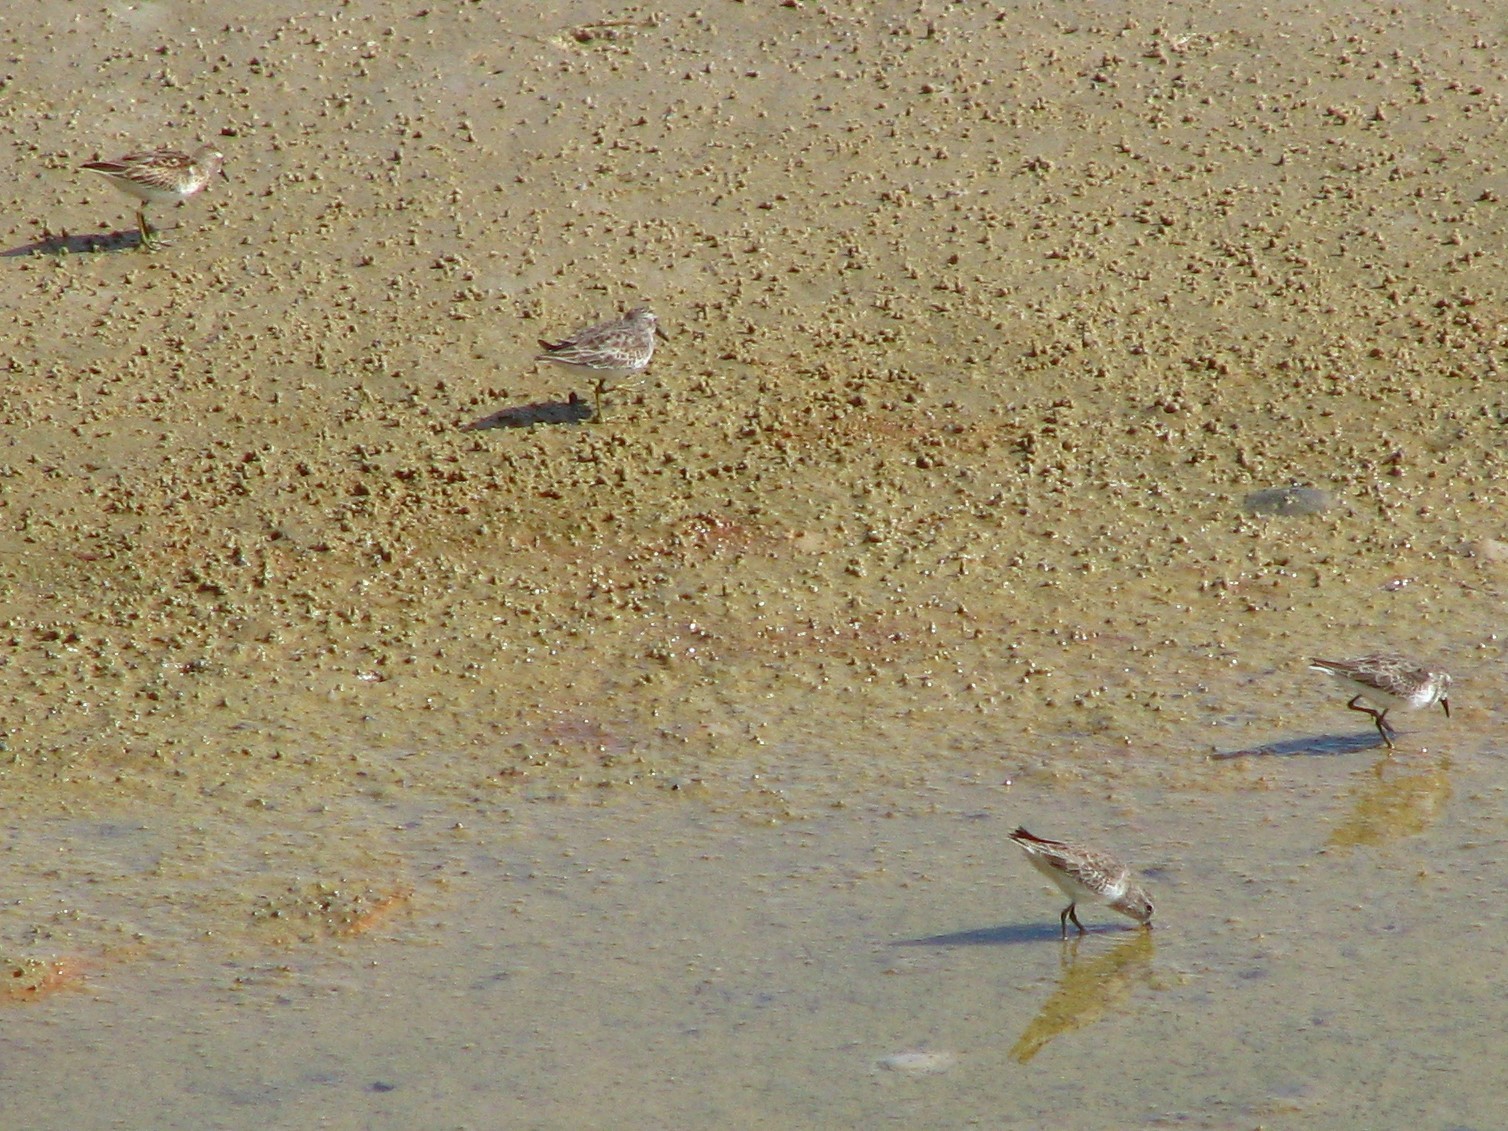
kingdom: Animalia
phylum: Chordata
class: Aves
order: Charadriiformes
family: Scolopacidae
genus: Calidris
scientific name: Calidris minutilla
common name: Least sandpiper
